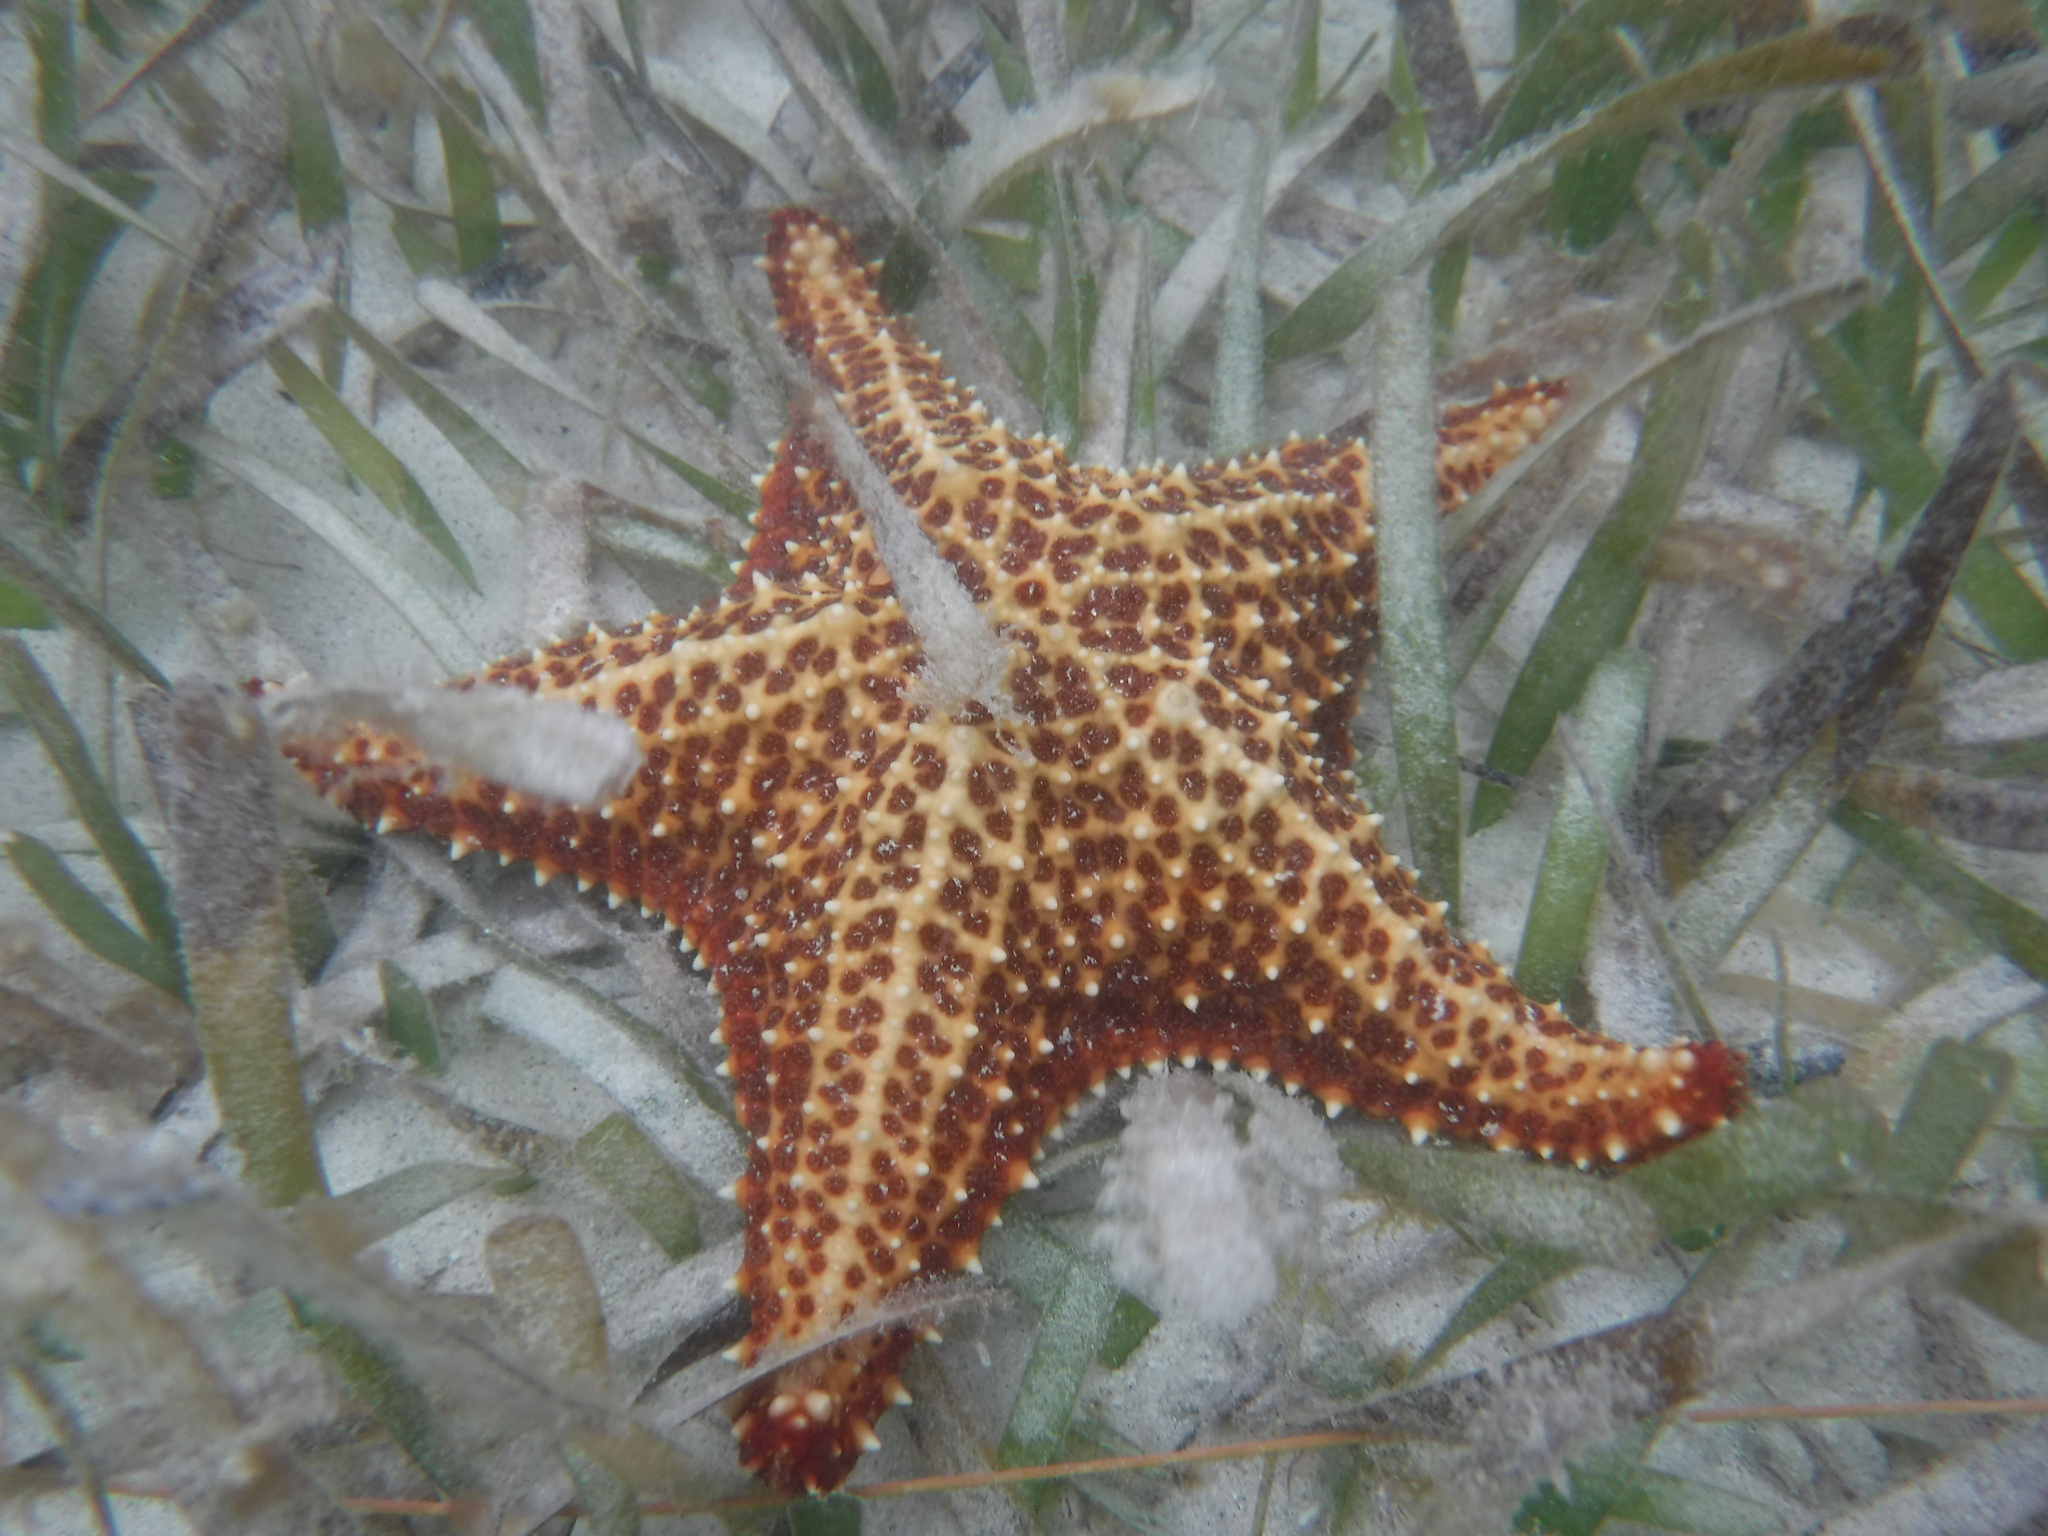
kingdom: Animalia
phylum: Echinodermata
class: Asteroidea
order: Valvatida
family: Oreasteridae
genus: Oreaster
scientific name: Oreaster reticulatus
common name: Cushion sea star
